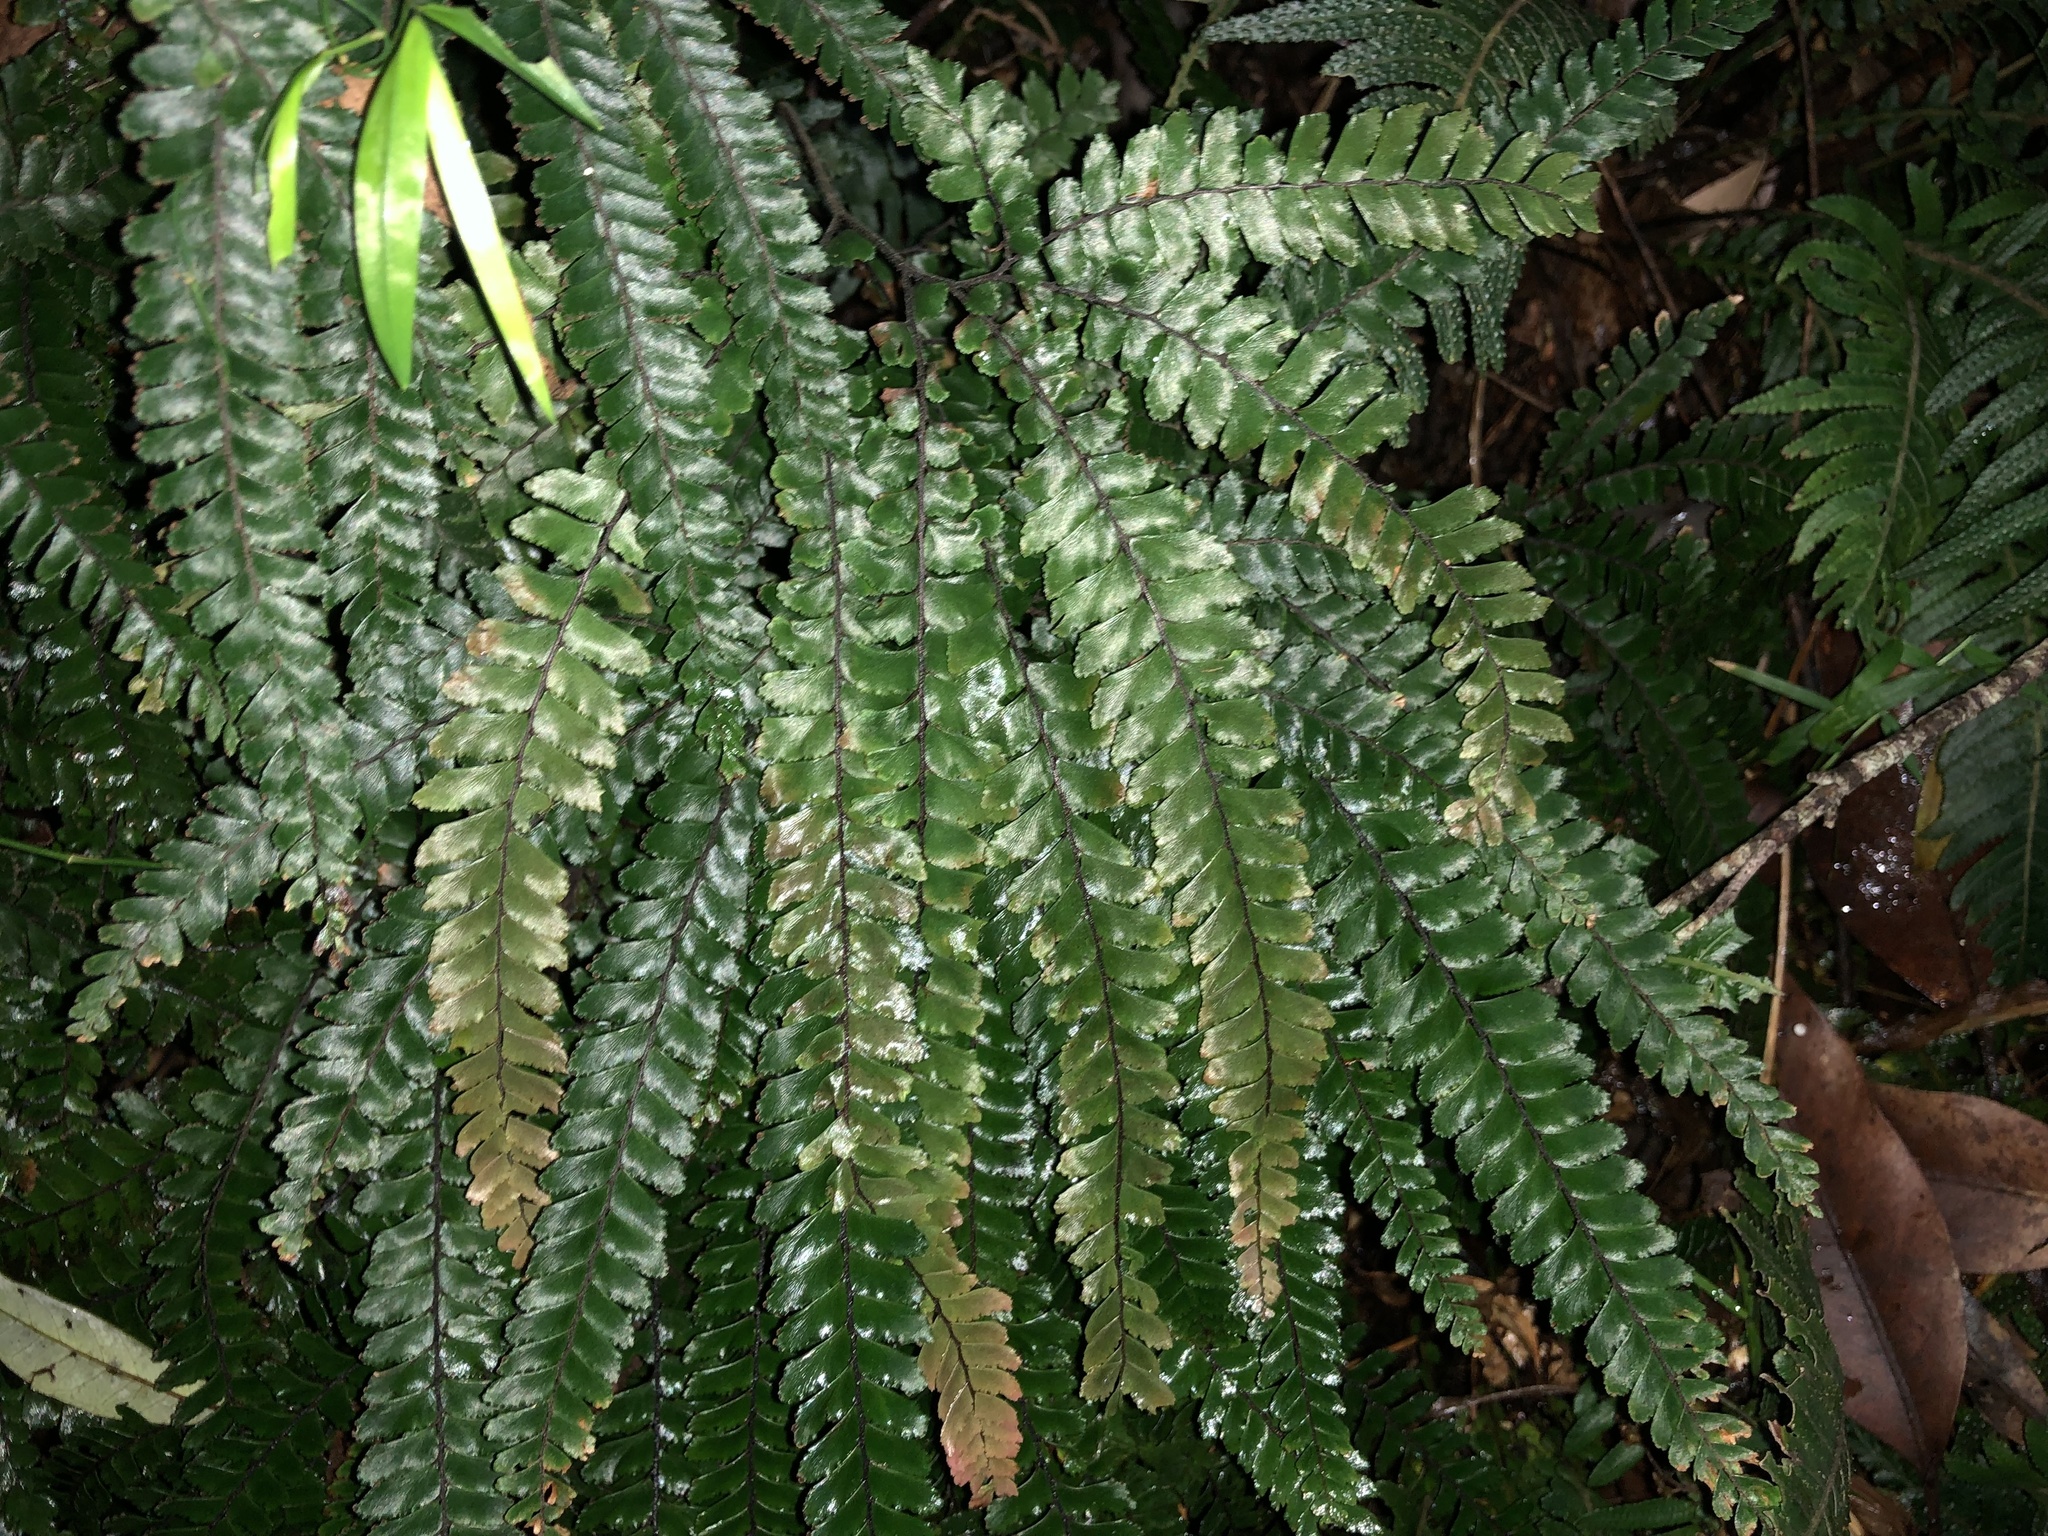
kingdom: Plantae
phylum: Tracheophyta
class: Polypodiopsida
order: Polypodiales
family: Pteridaceae
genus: Adiantum
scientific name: Adiantum hispidulum
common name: Rough maidenhair
